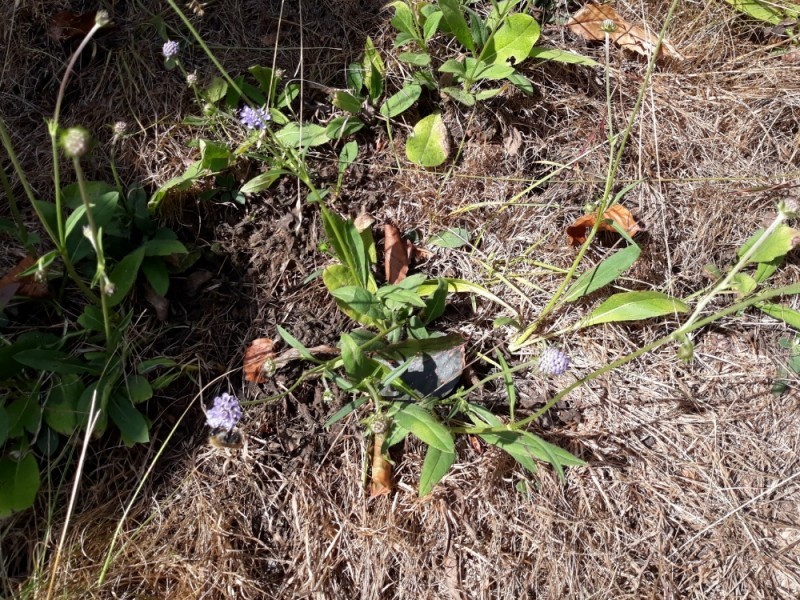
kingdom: Plantae
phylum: Tracheophyta
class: Magnoliopsida
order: Dipsacales
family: Caprifoliaceae
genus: Succisa
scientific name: Succisa pratensis
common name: Devil's-bit
